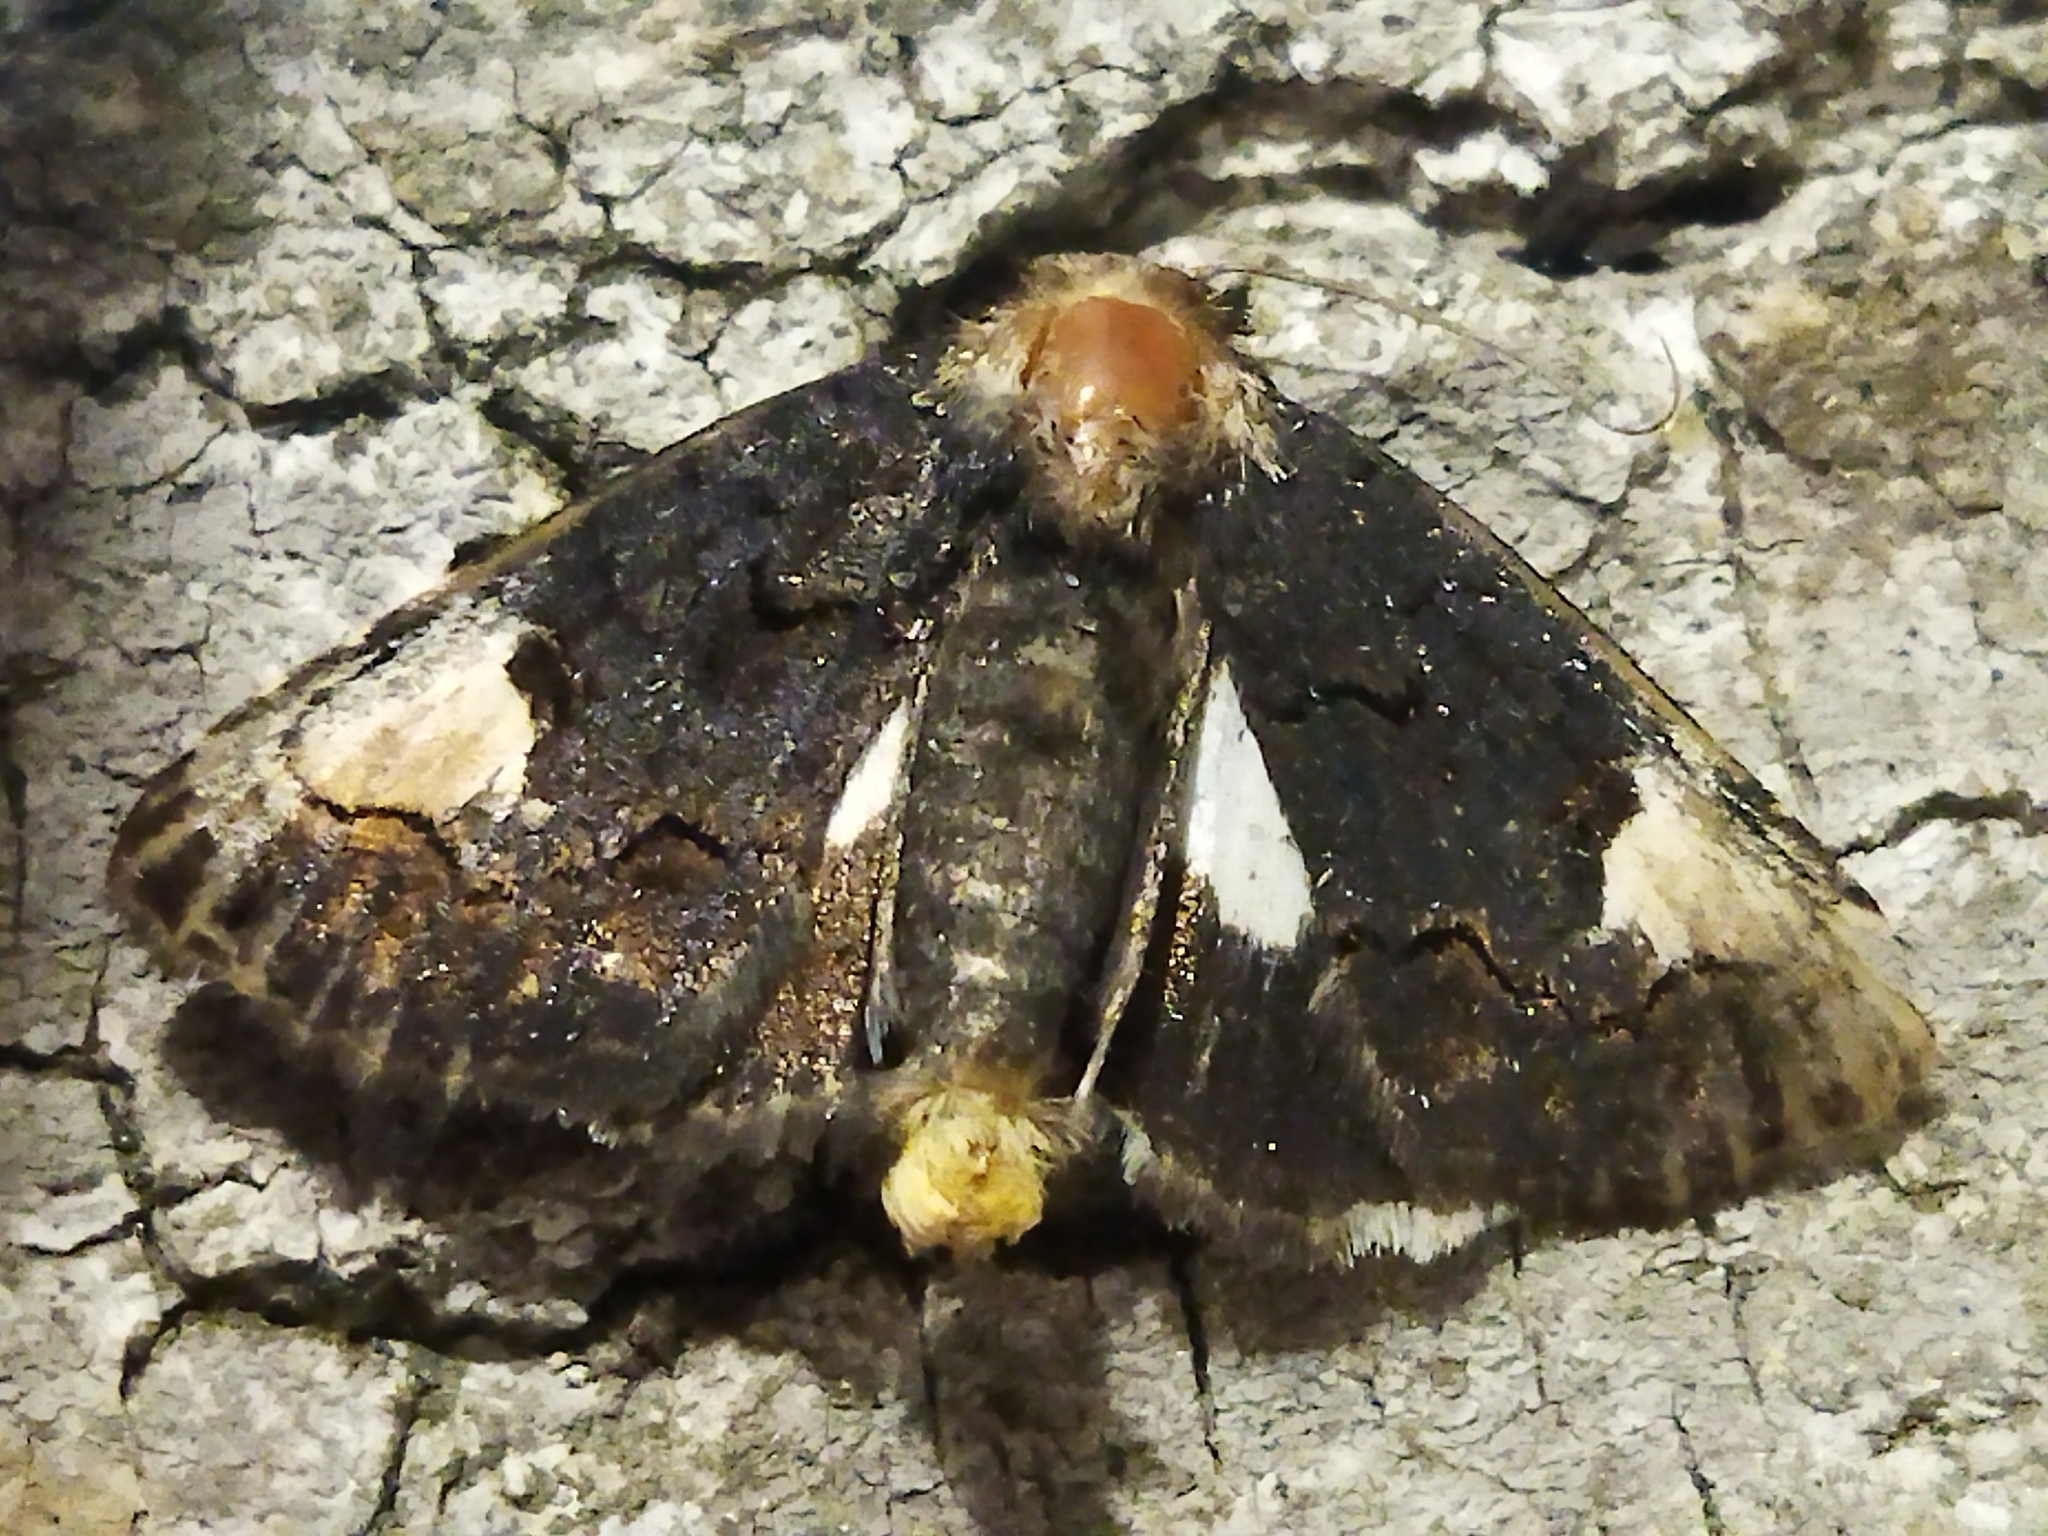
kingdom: Animalia
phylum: Arthropoda
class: Insecta
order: Lepidoptera
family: Noctuidae
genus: Aedia
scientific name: Aedia funesta
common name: The druid
